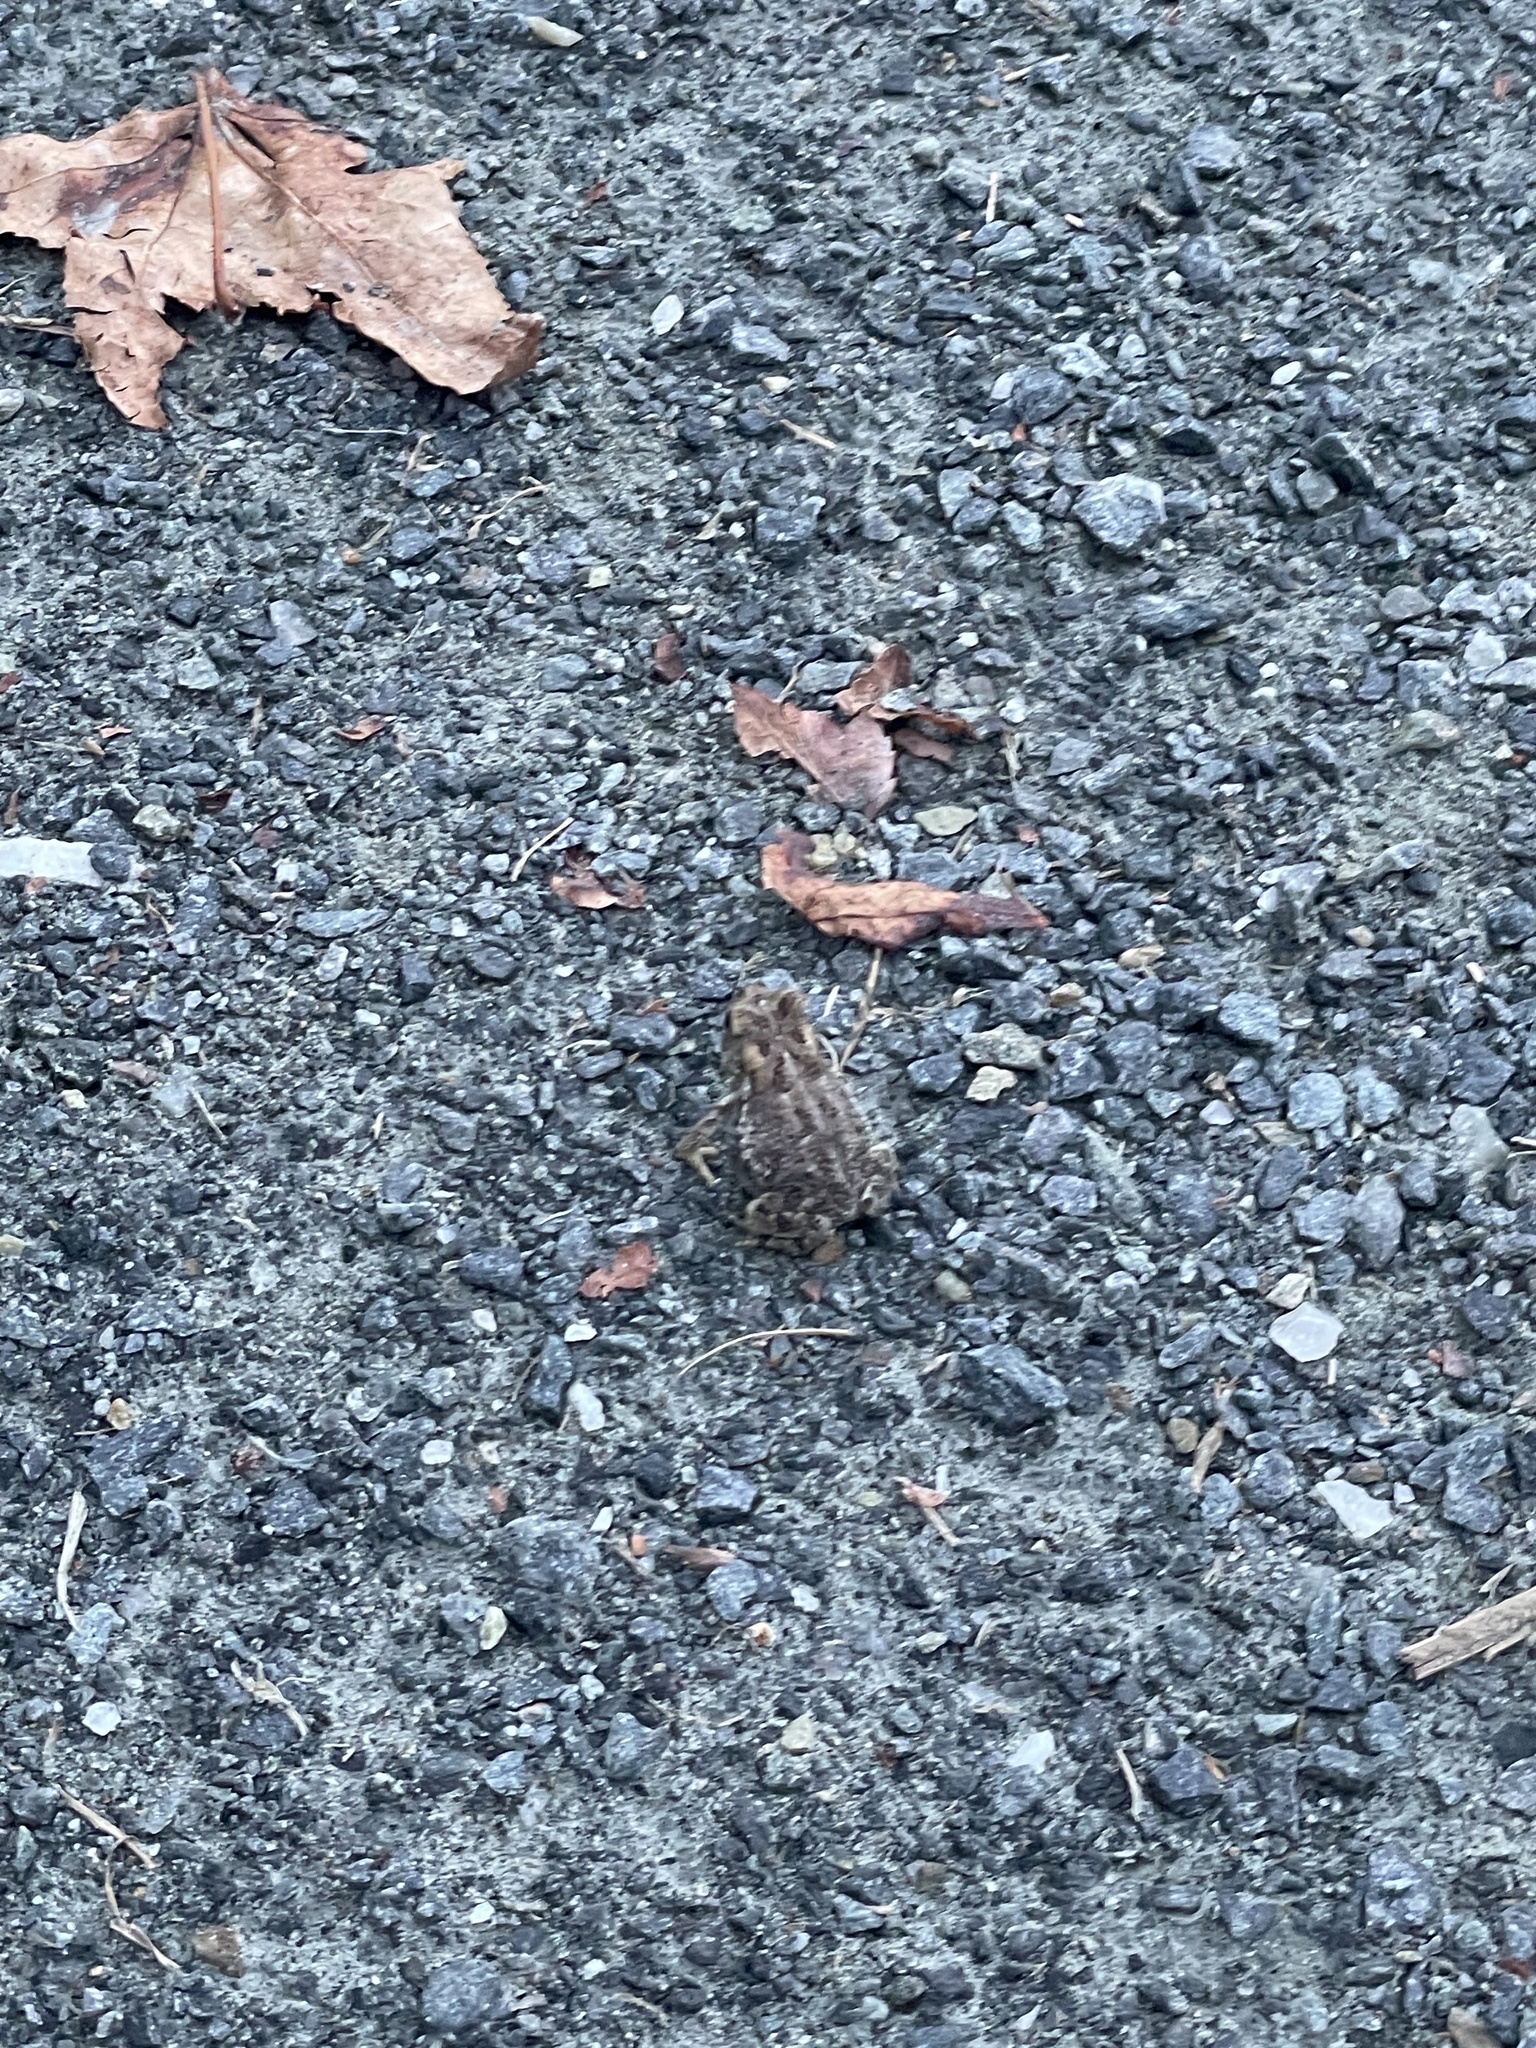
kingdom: Animalia
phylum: Chordata
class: Amphibia
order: Anura
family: Bufonidae
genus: Anaxyrus
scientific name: Anaxyrus fowleri
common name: Fowler's toad
